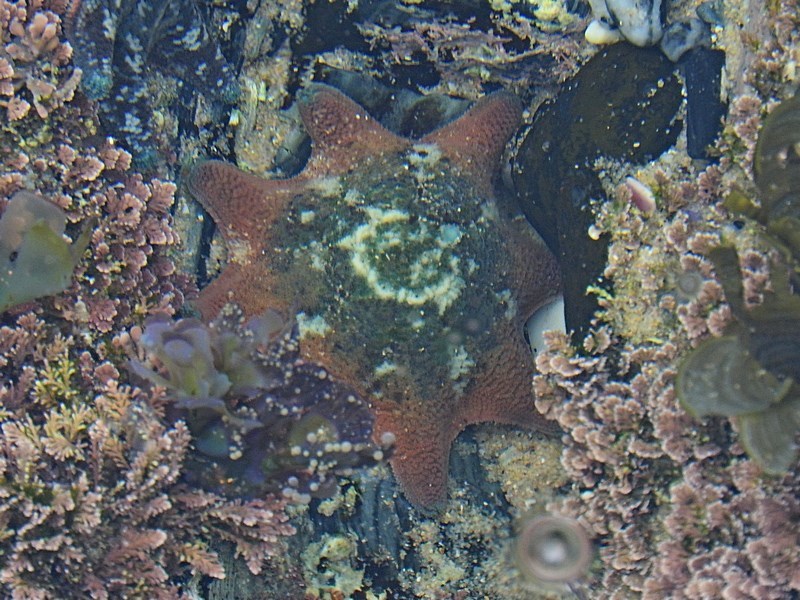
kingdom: Animalia
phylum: Echinodermata
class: Asteroidea
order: Valvatida
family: Asterinidae
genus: Meridiastra
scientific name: Meridiastra calcar
